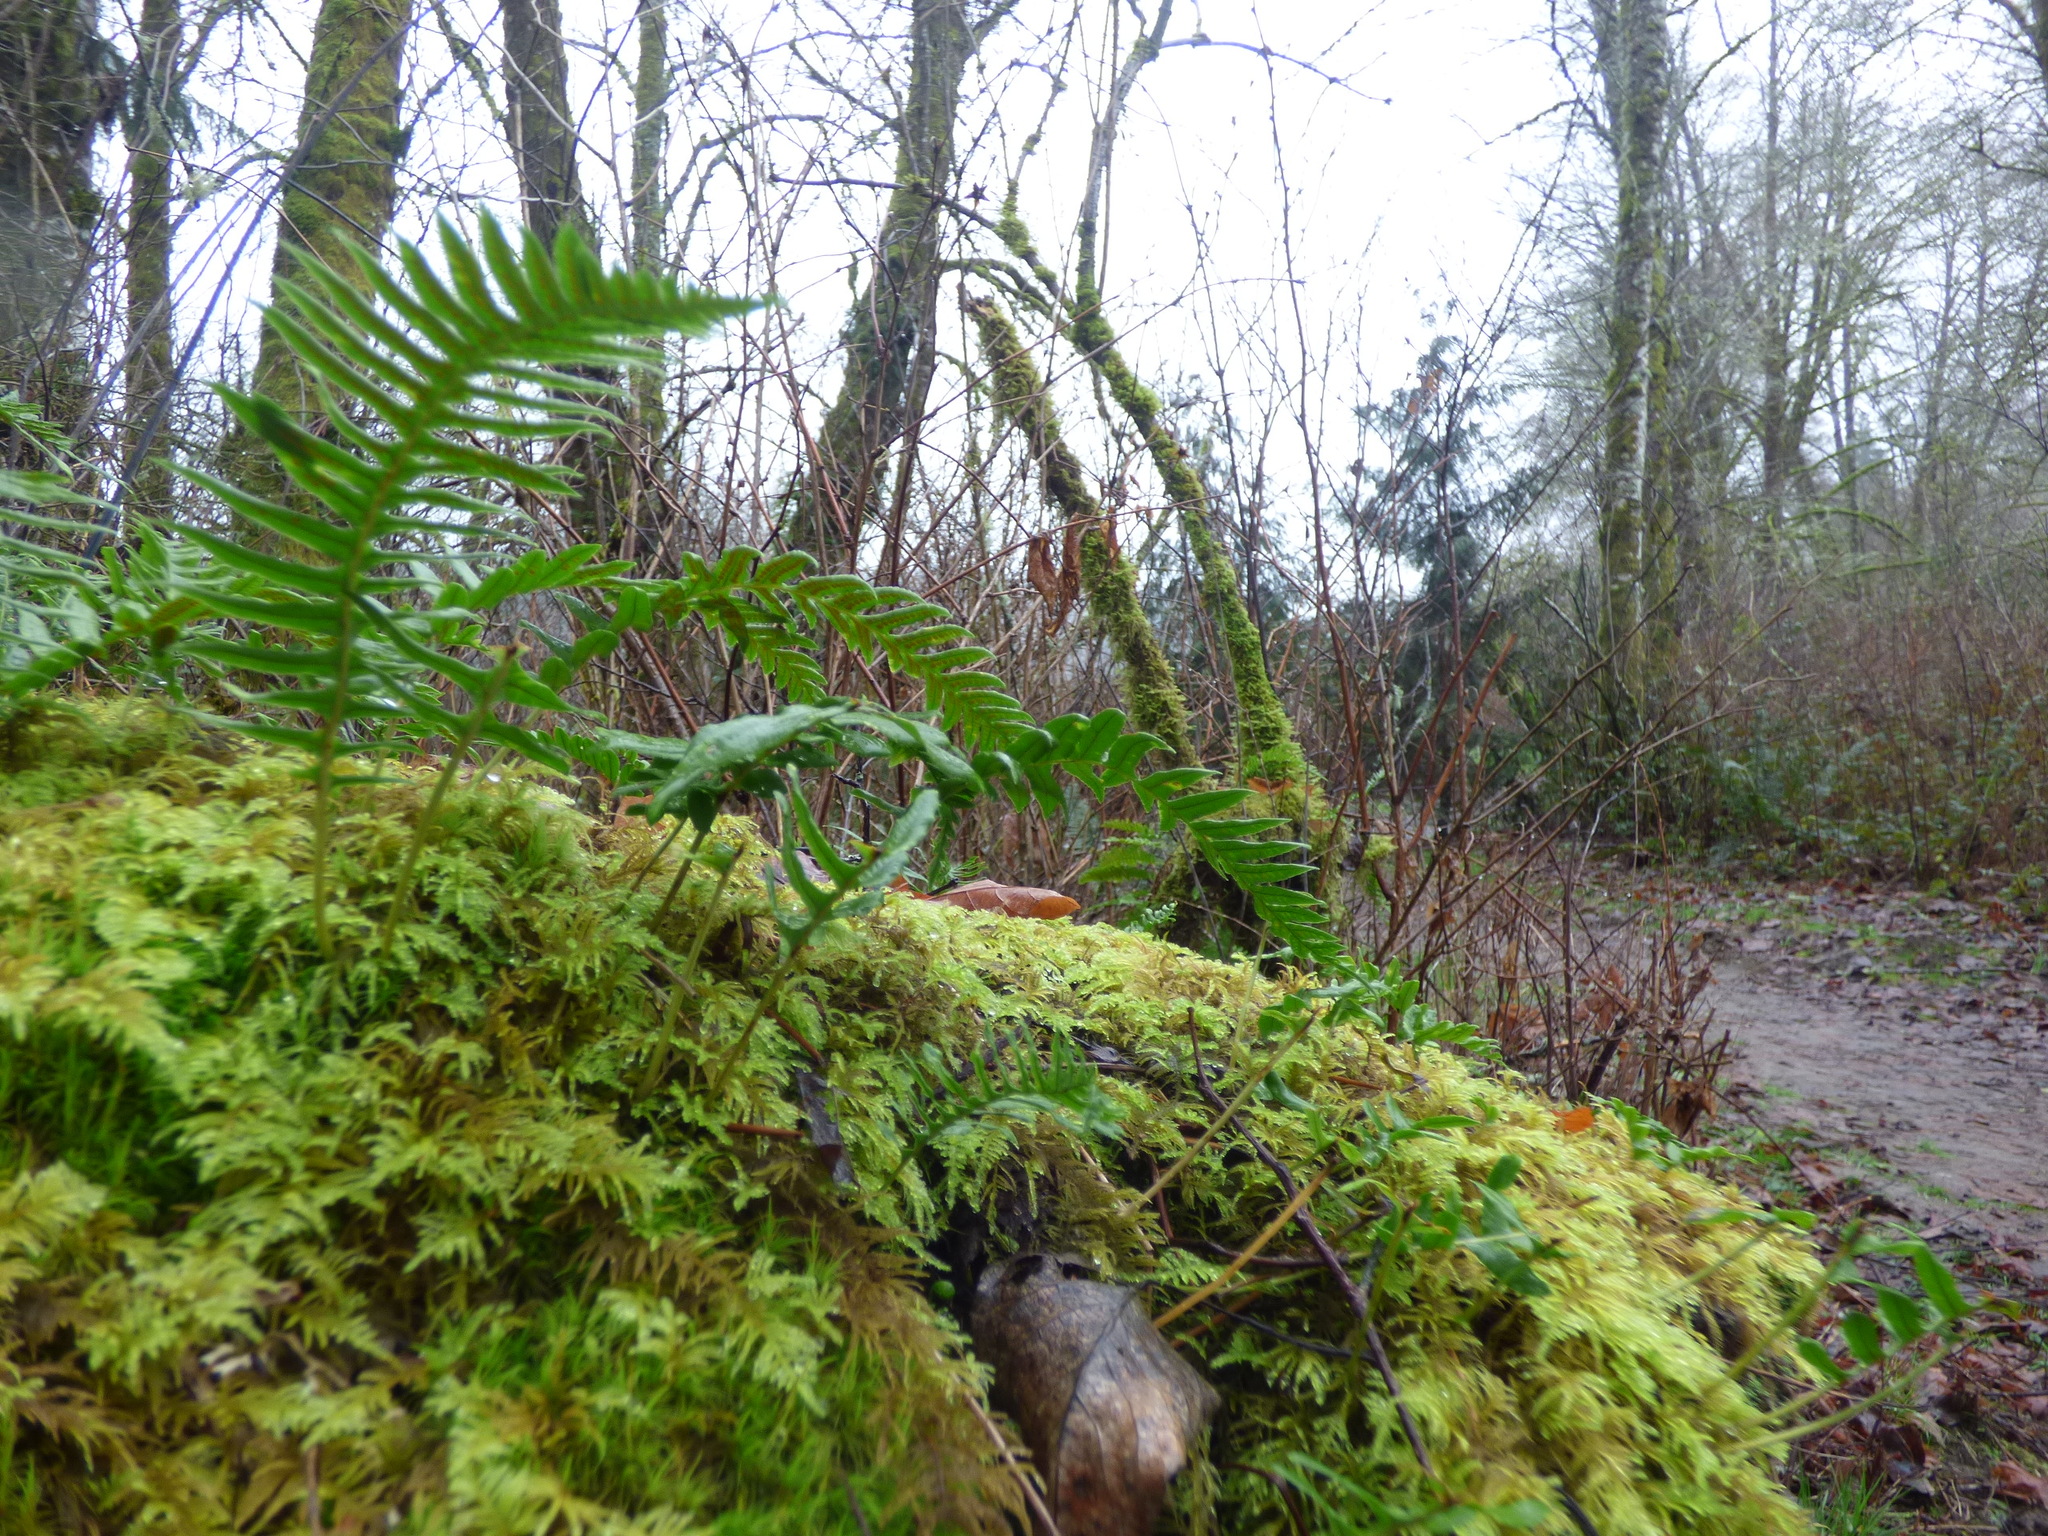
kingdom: Plantae
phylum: Tracheophyta
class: Polypodiopsida
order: Polypodiales
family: Polypodiaceae
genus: Polypodium
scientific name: Polypodium glycyrrhiza
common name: Licorice fern
